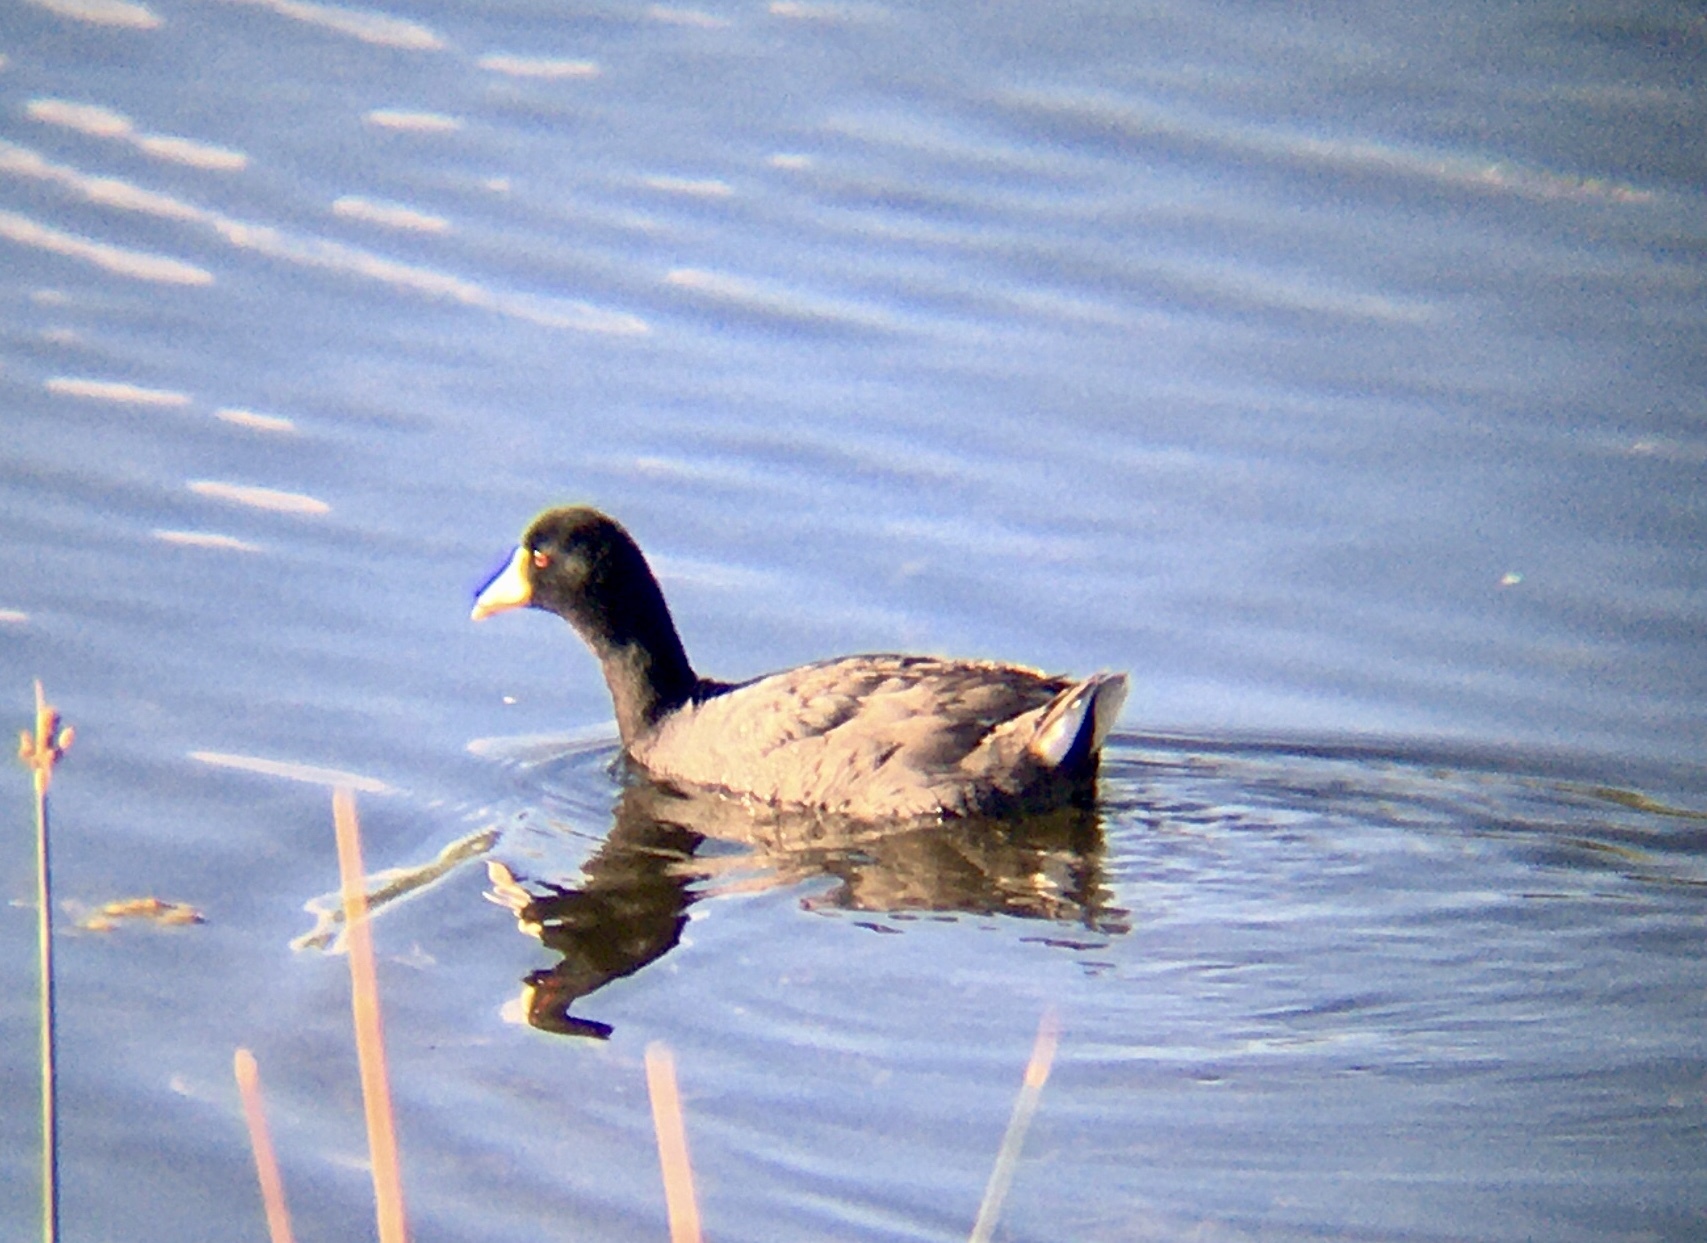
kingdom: Animalia
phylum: Chordata
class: Aves
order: Gruiformes
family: Rallidae
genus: Fulica
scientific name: Fulica americana
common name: American coot
